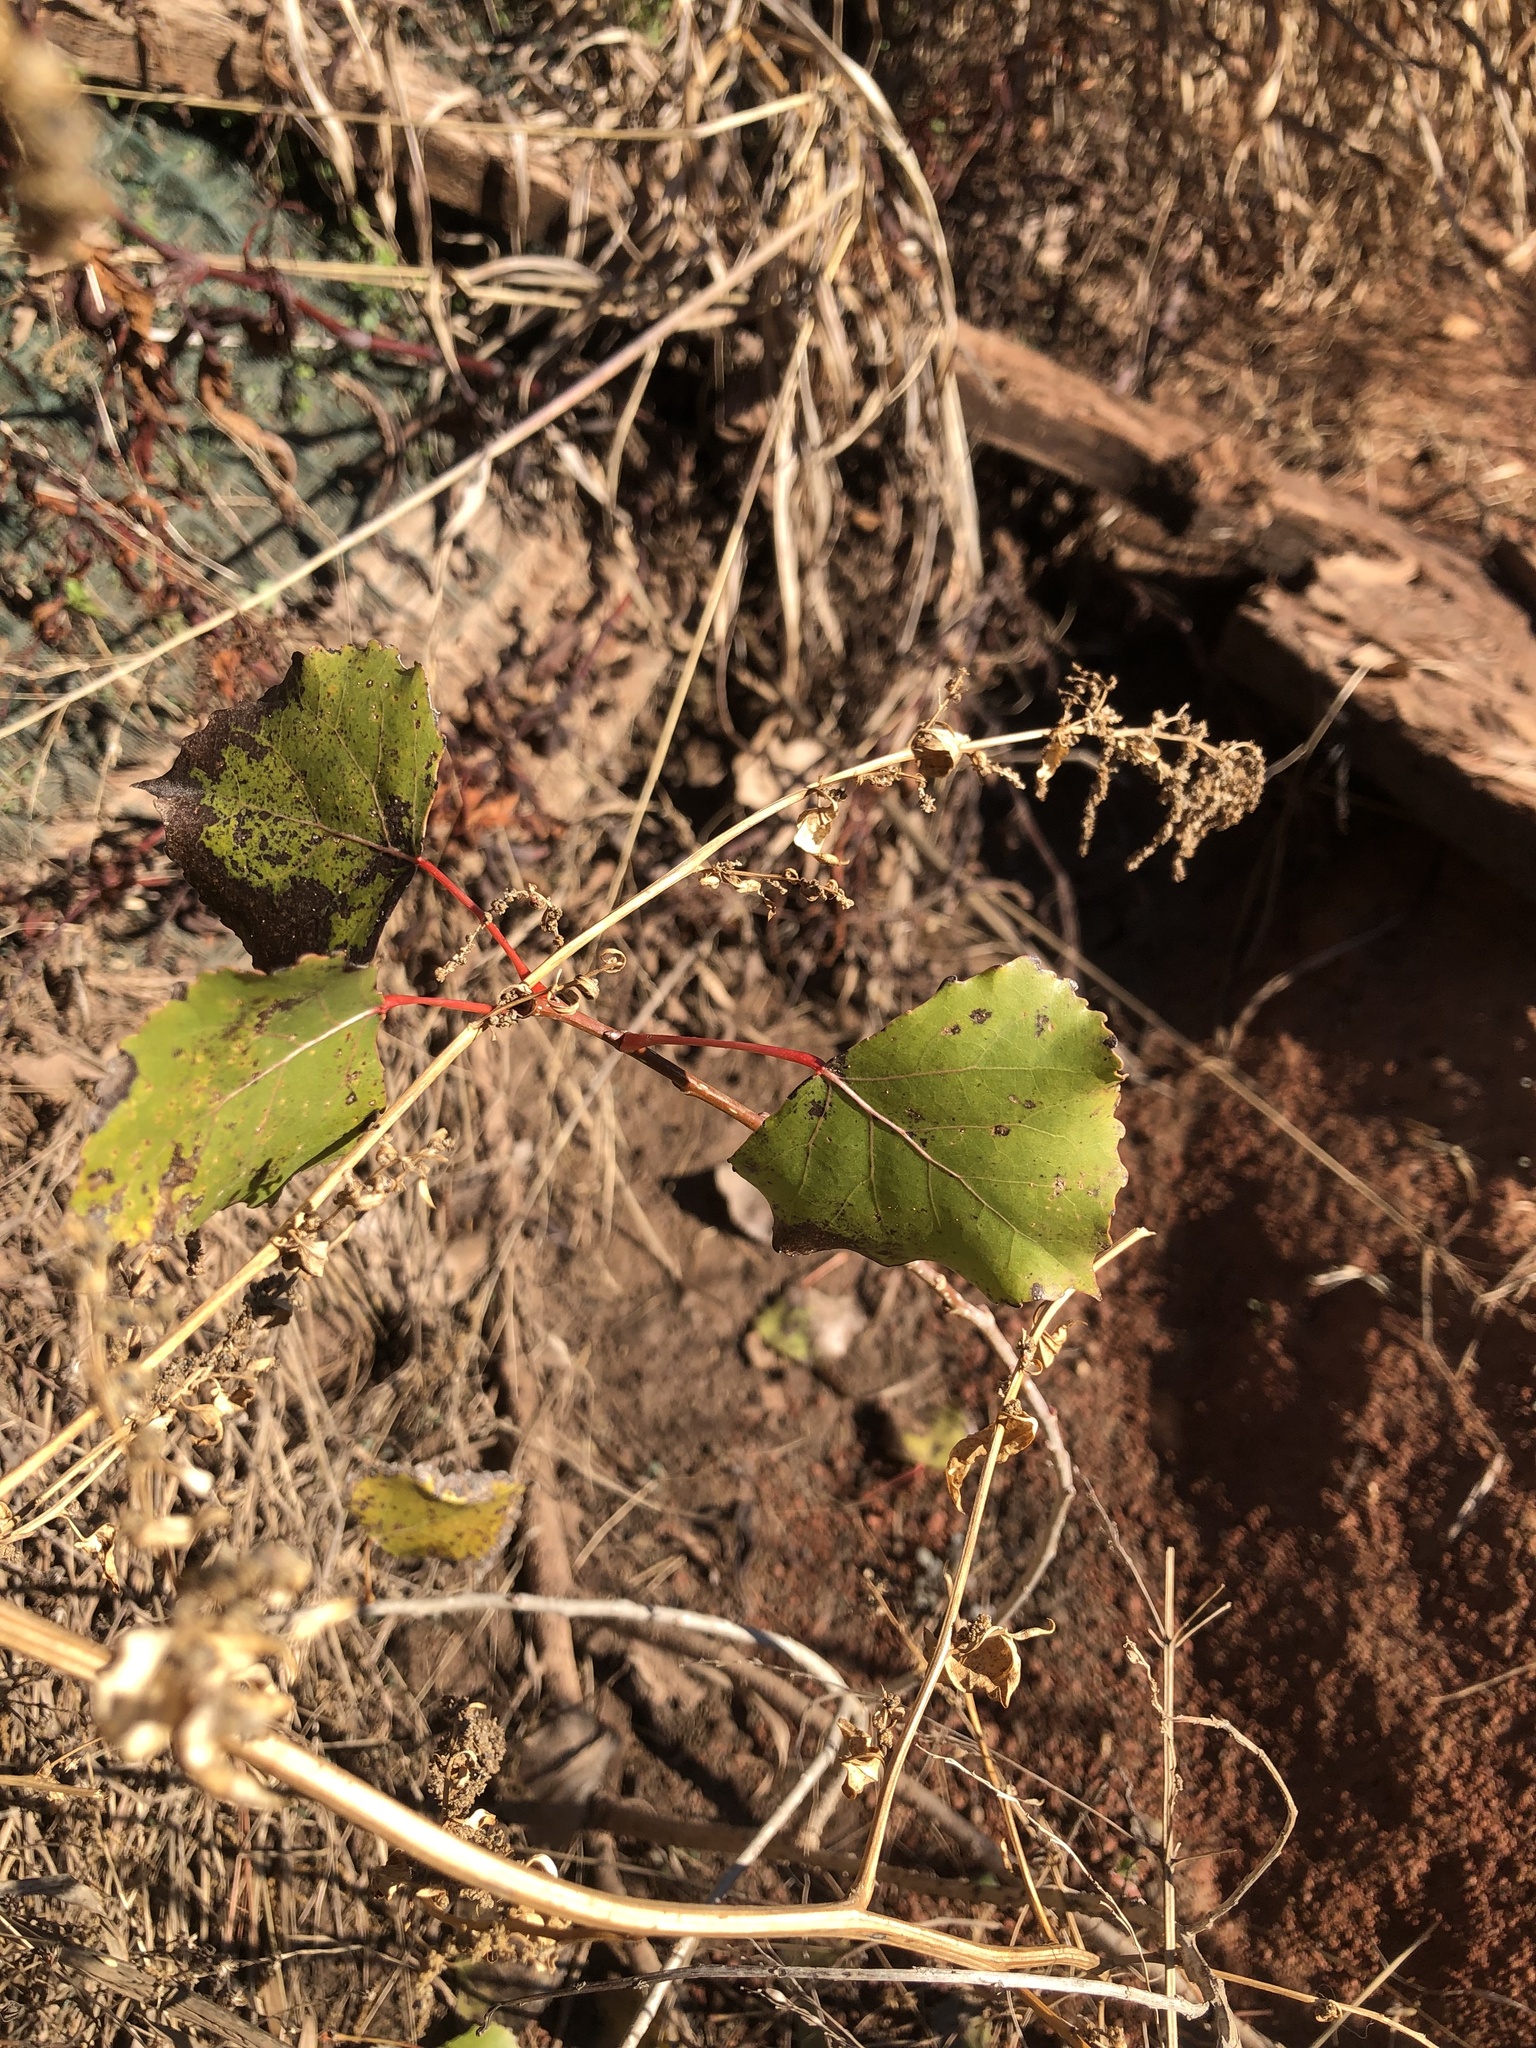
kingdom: Plantae
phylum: Tracheophyta
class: Magnoliopsida
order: Malpighiales
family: Salicaceae
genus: Populus
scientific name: Populus deltoides
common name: Eastern cottonwood
